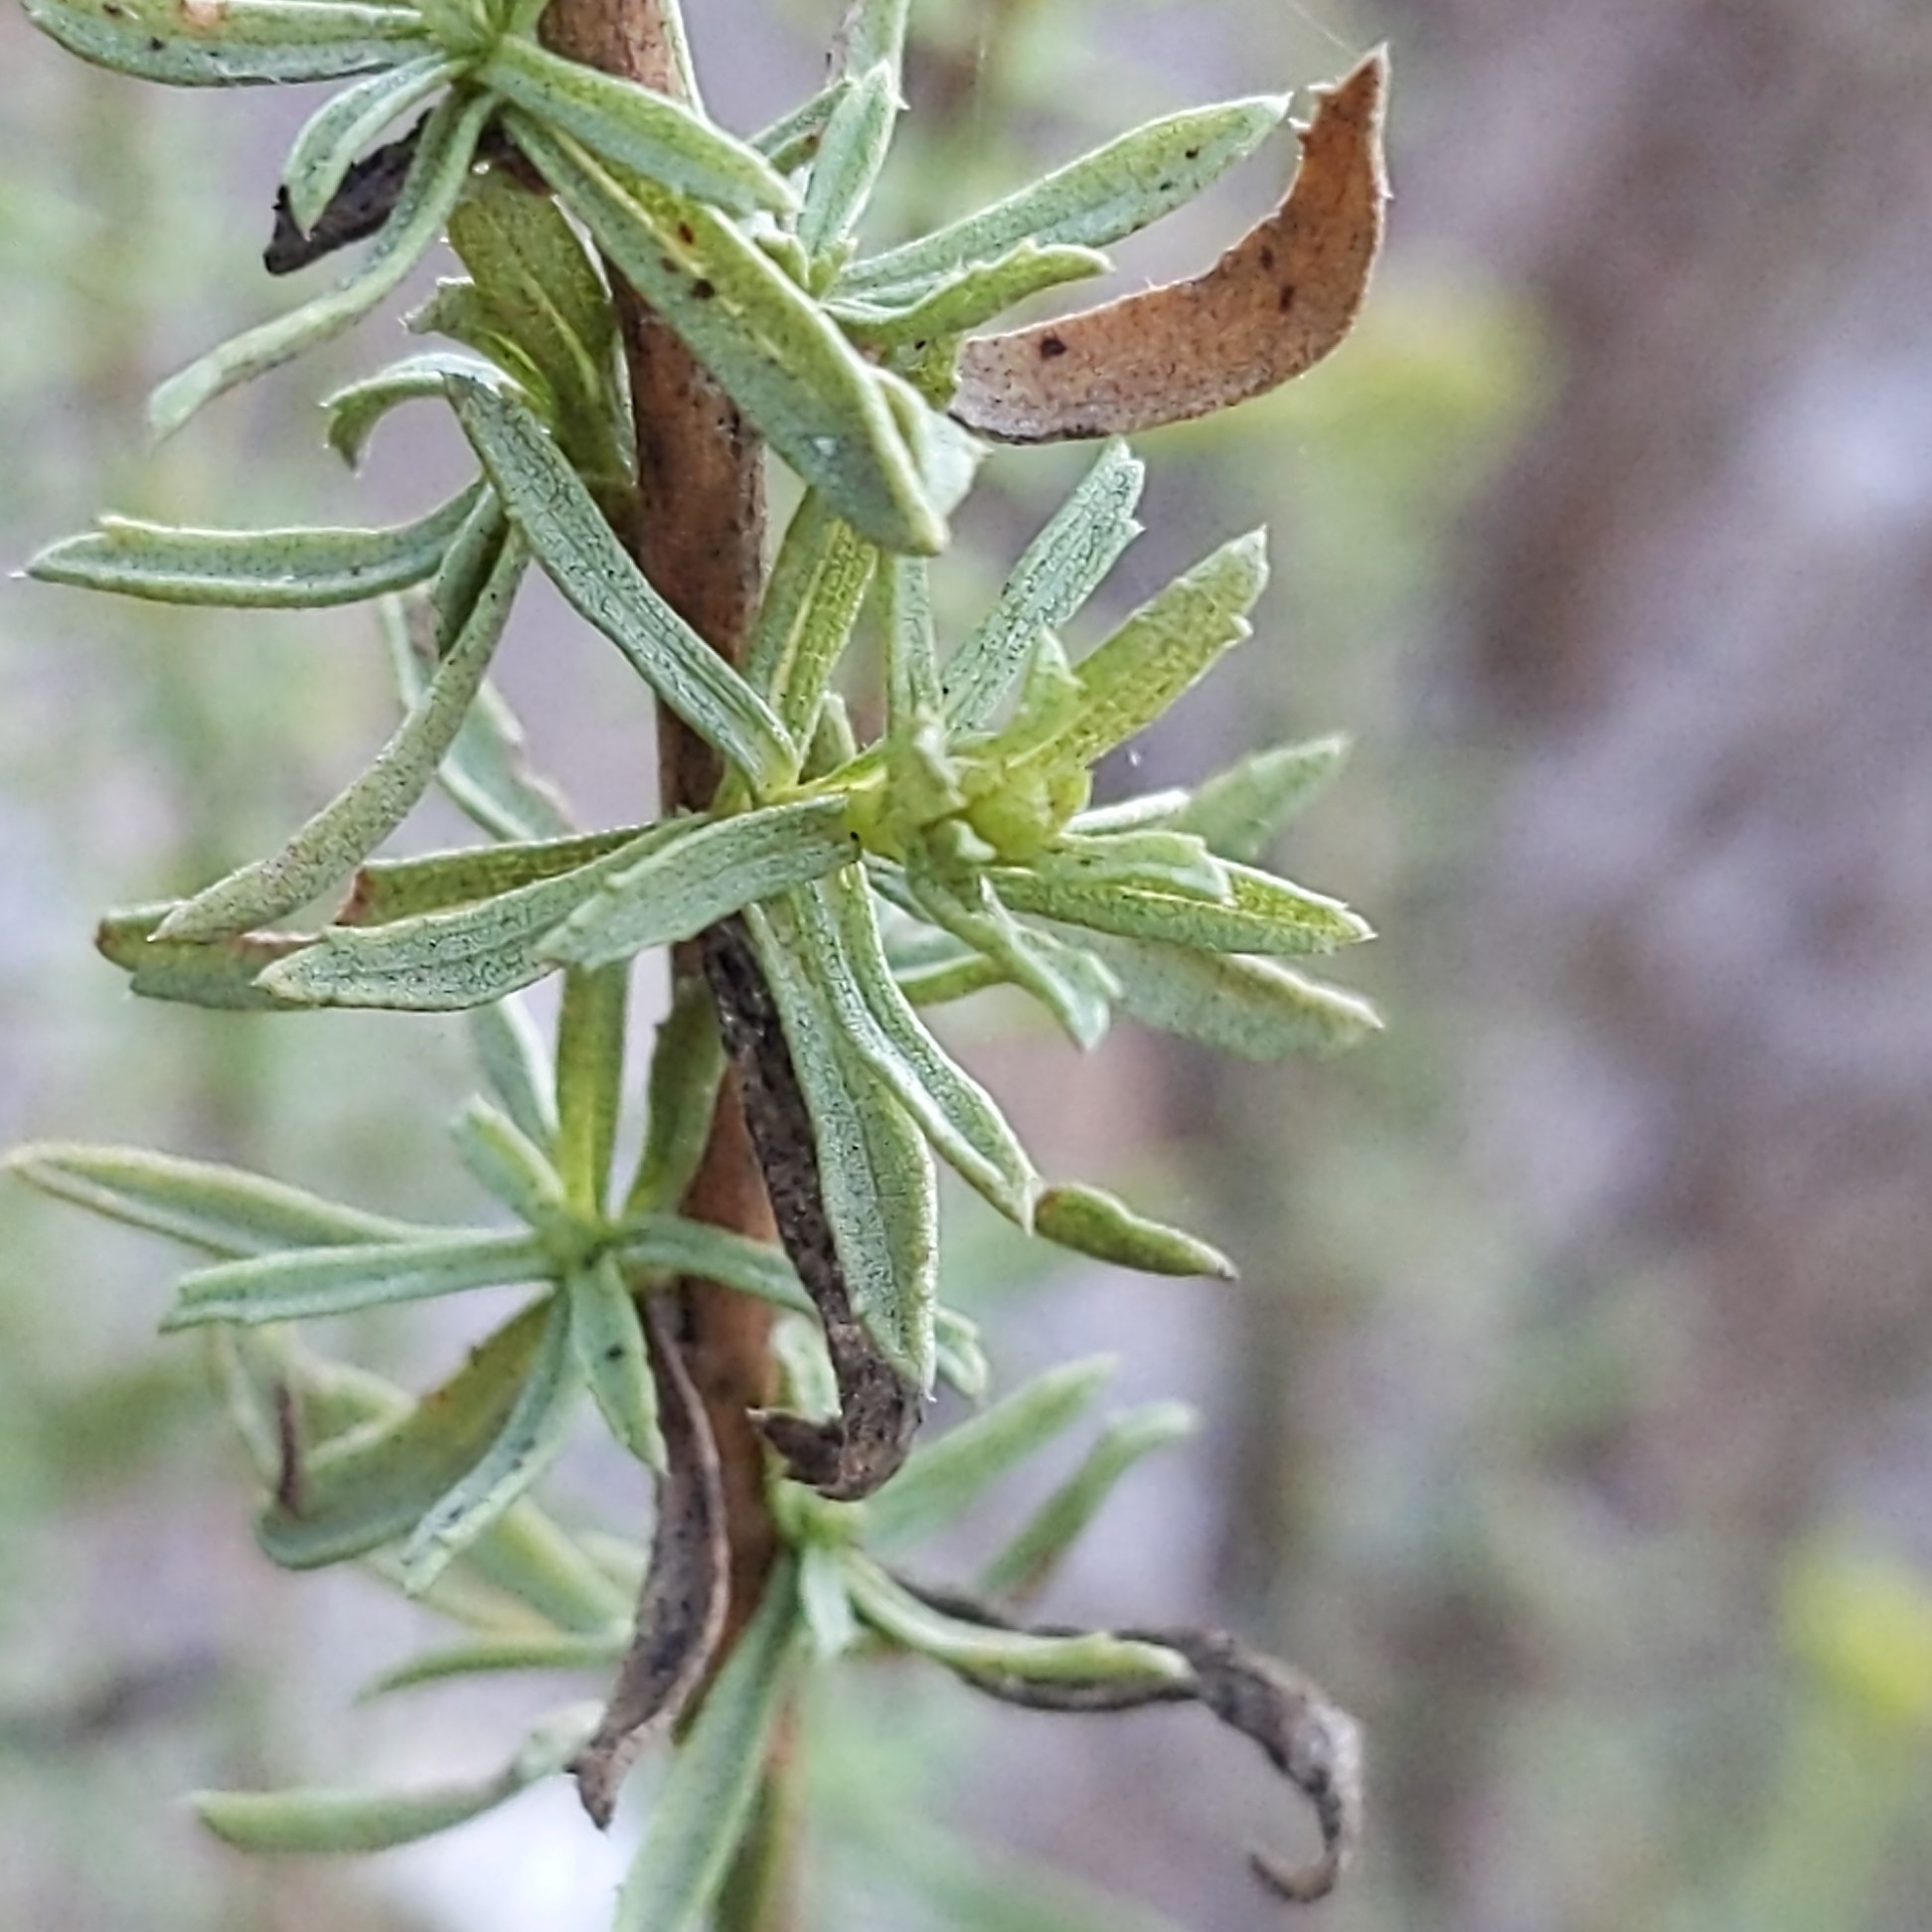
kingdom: Plantae
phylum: Tracheophyta
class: Magnoliopsida
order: Asterales
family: Asteraceae
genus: Isocoma
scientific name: Isocoma menziesii
